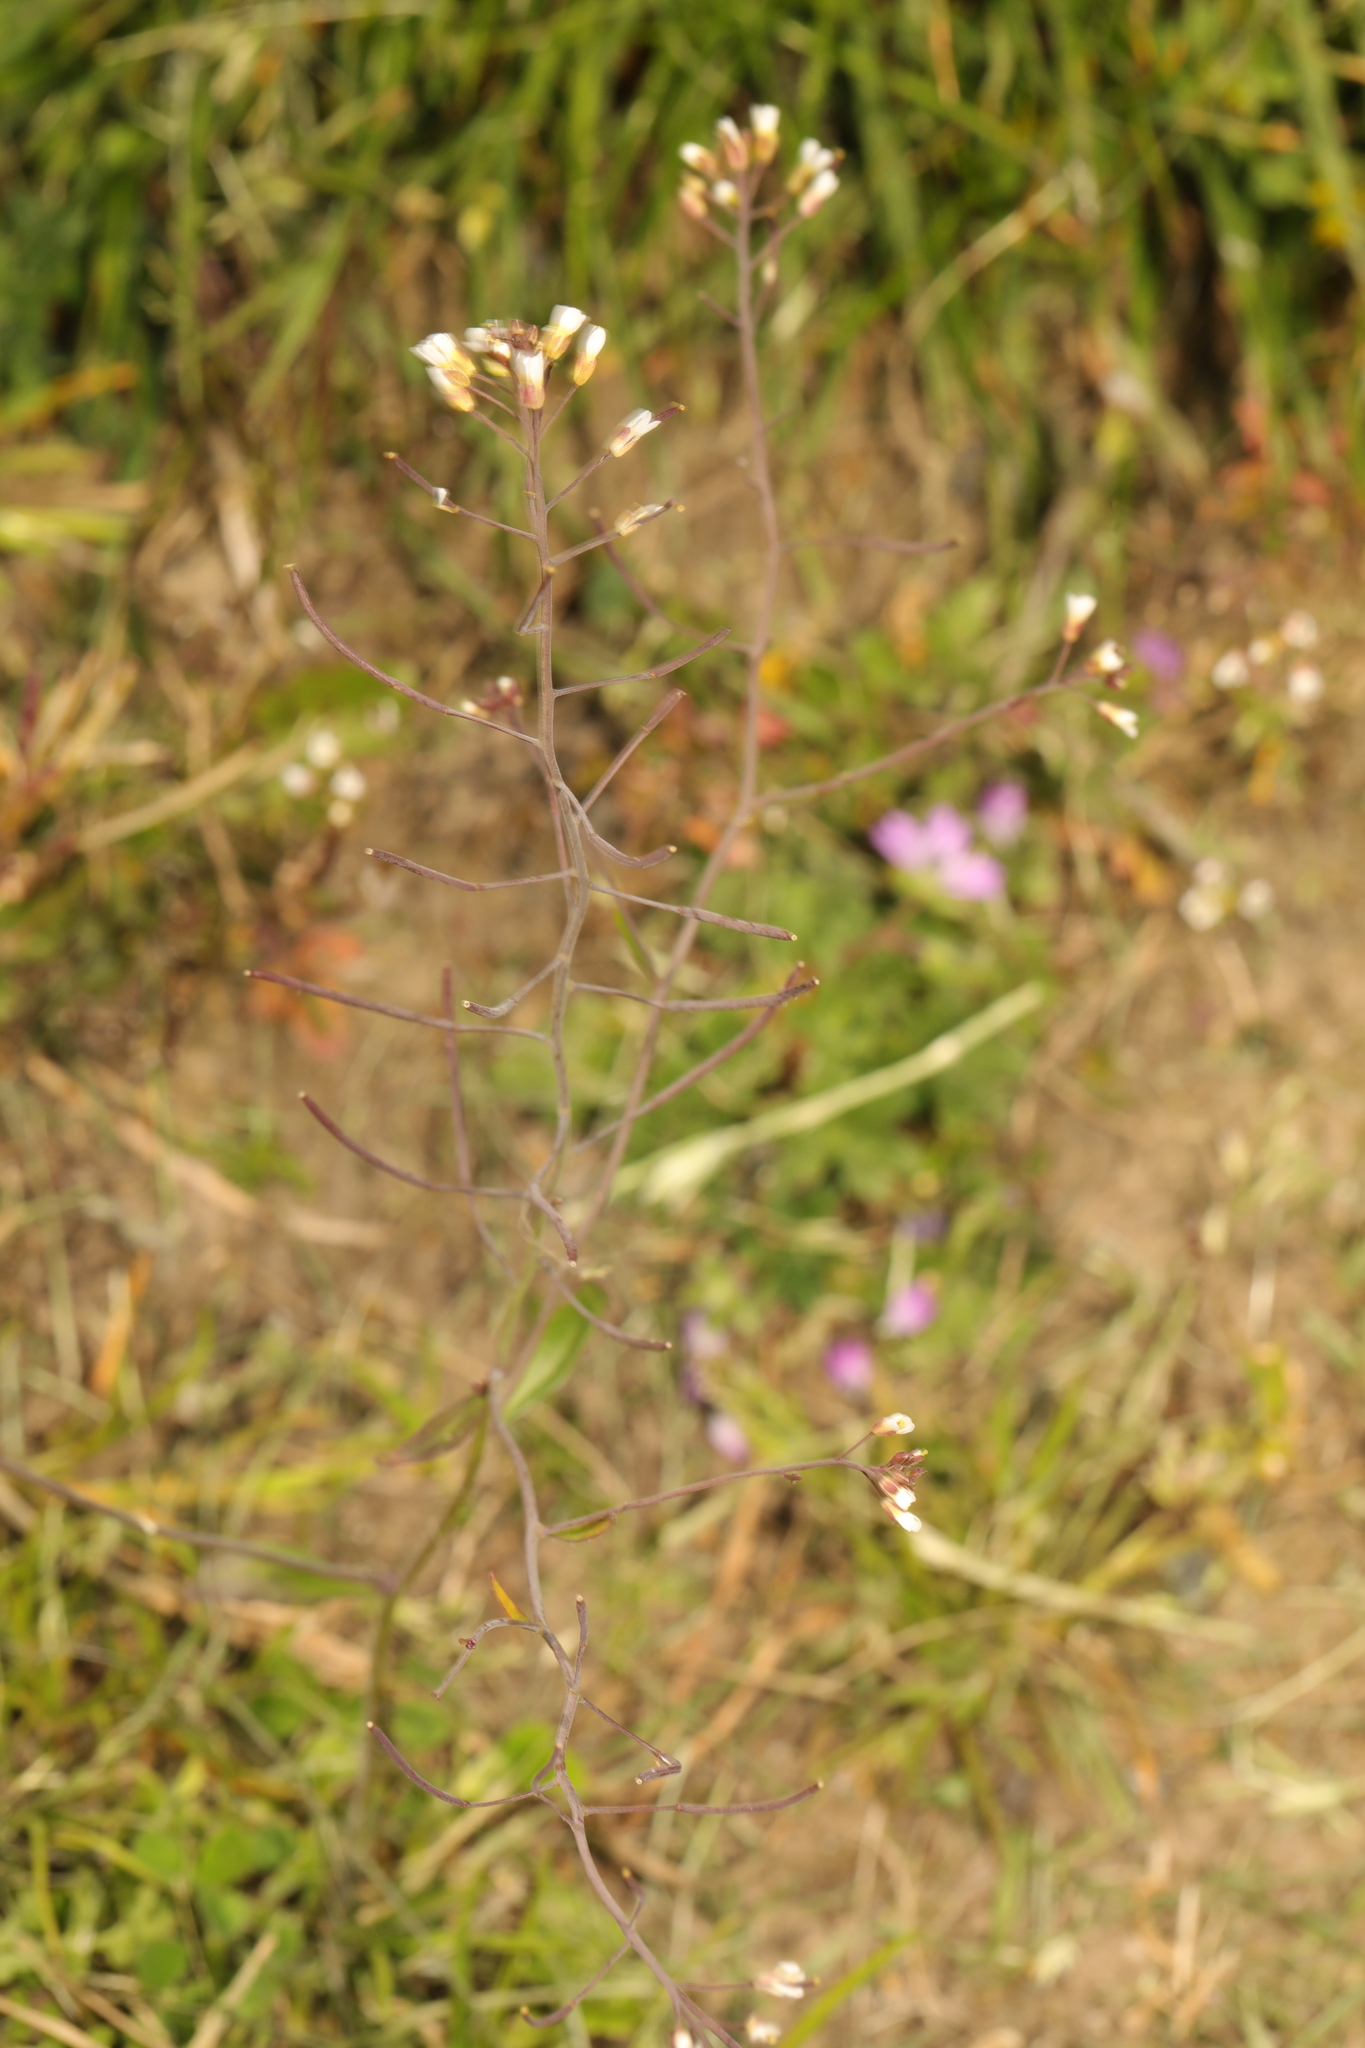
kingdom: Plantae
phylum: Tracheophyta
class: Magnoliopsida
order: Brassicales
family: Brassicaceae
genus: Arabidopsis
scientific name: Arabidopsis thaliana
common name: Thale cress
